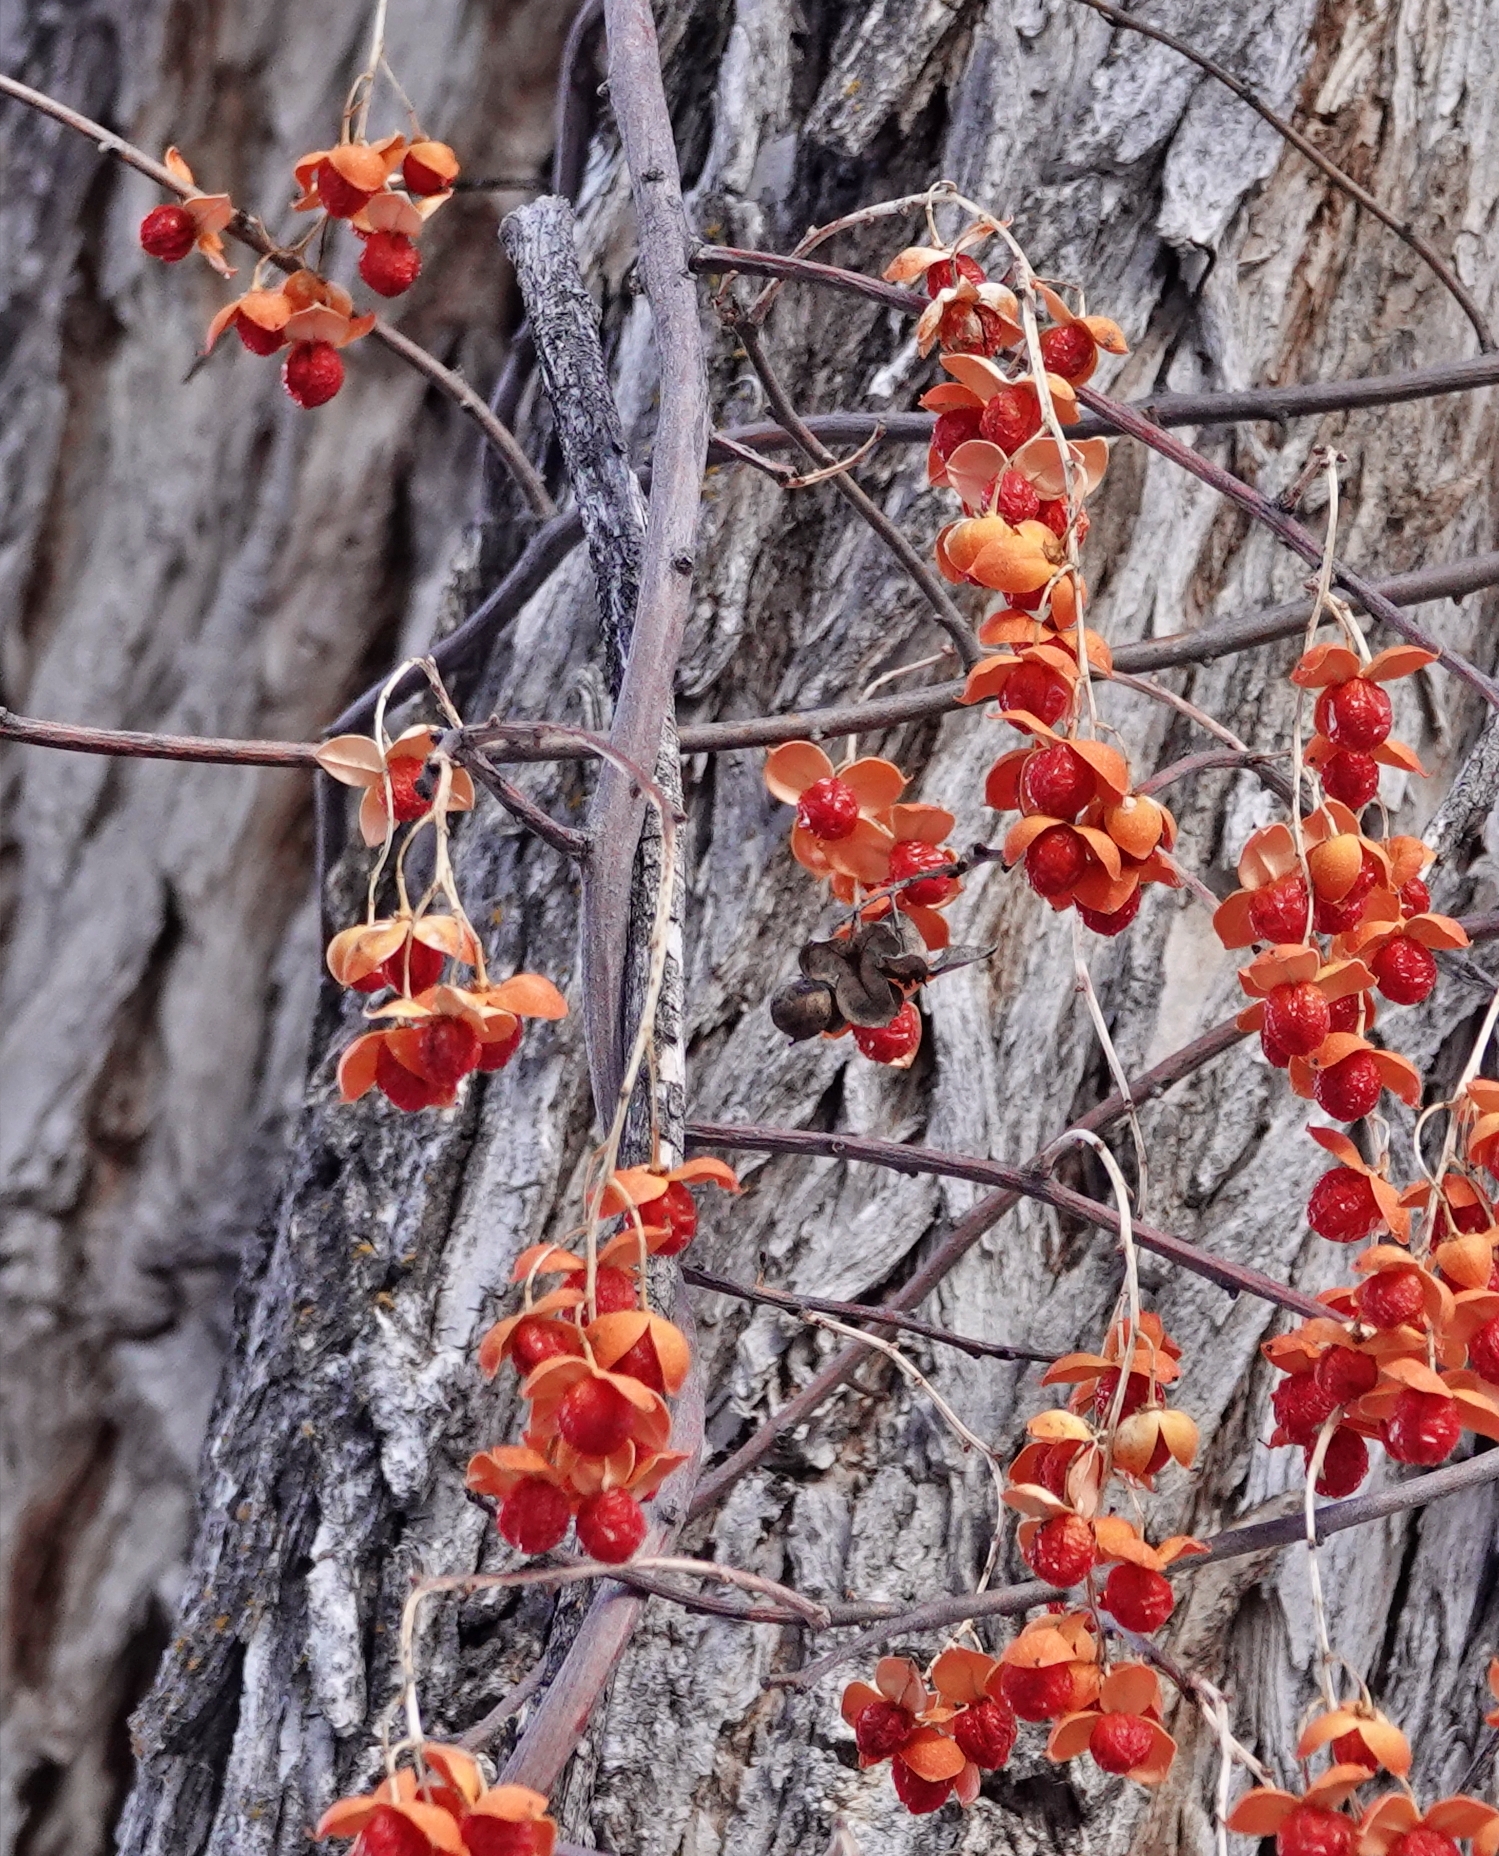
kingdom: Plantae
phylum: Tracheophyta
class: Magnoliopsida
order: Celastrales
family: Celastraceae
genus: Celastrus
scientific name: Celastrus scandens
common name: American bittersweet
